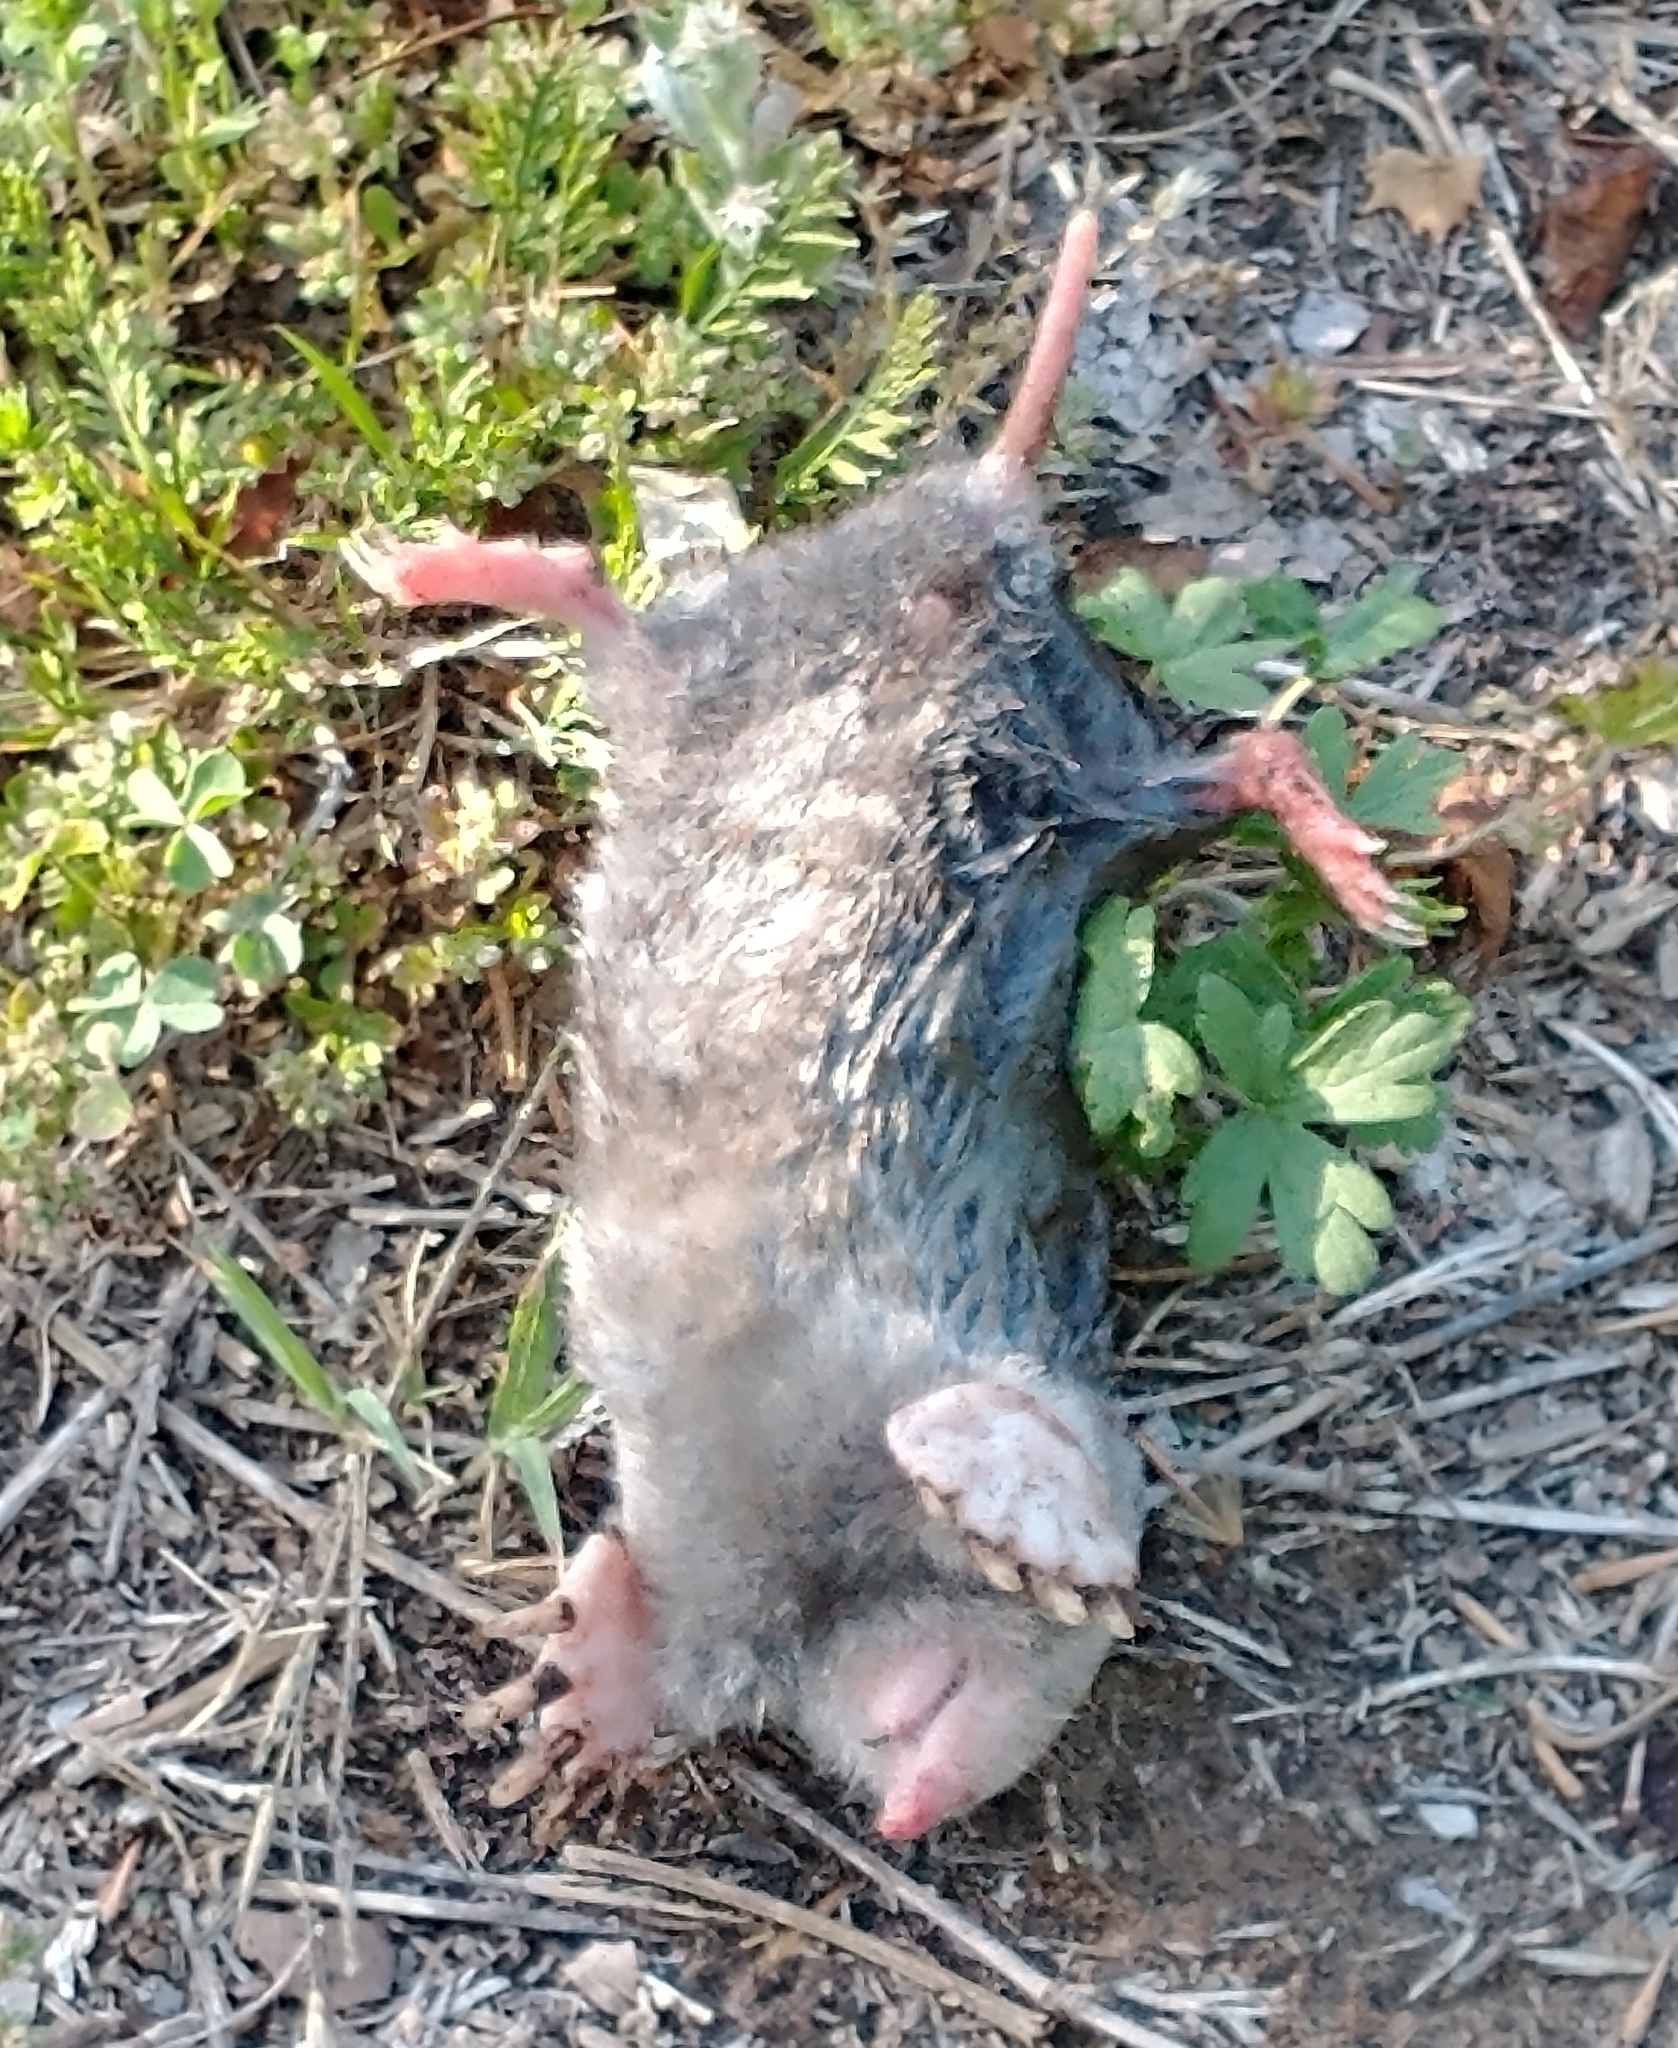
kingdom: Animalia
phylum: Chordata
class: Mammalia
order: Soricomorpha
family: Talpidae
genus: Scalopus
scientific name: Scalopus aquaticus
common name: Eastern mole
